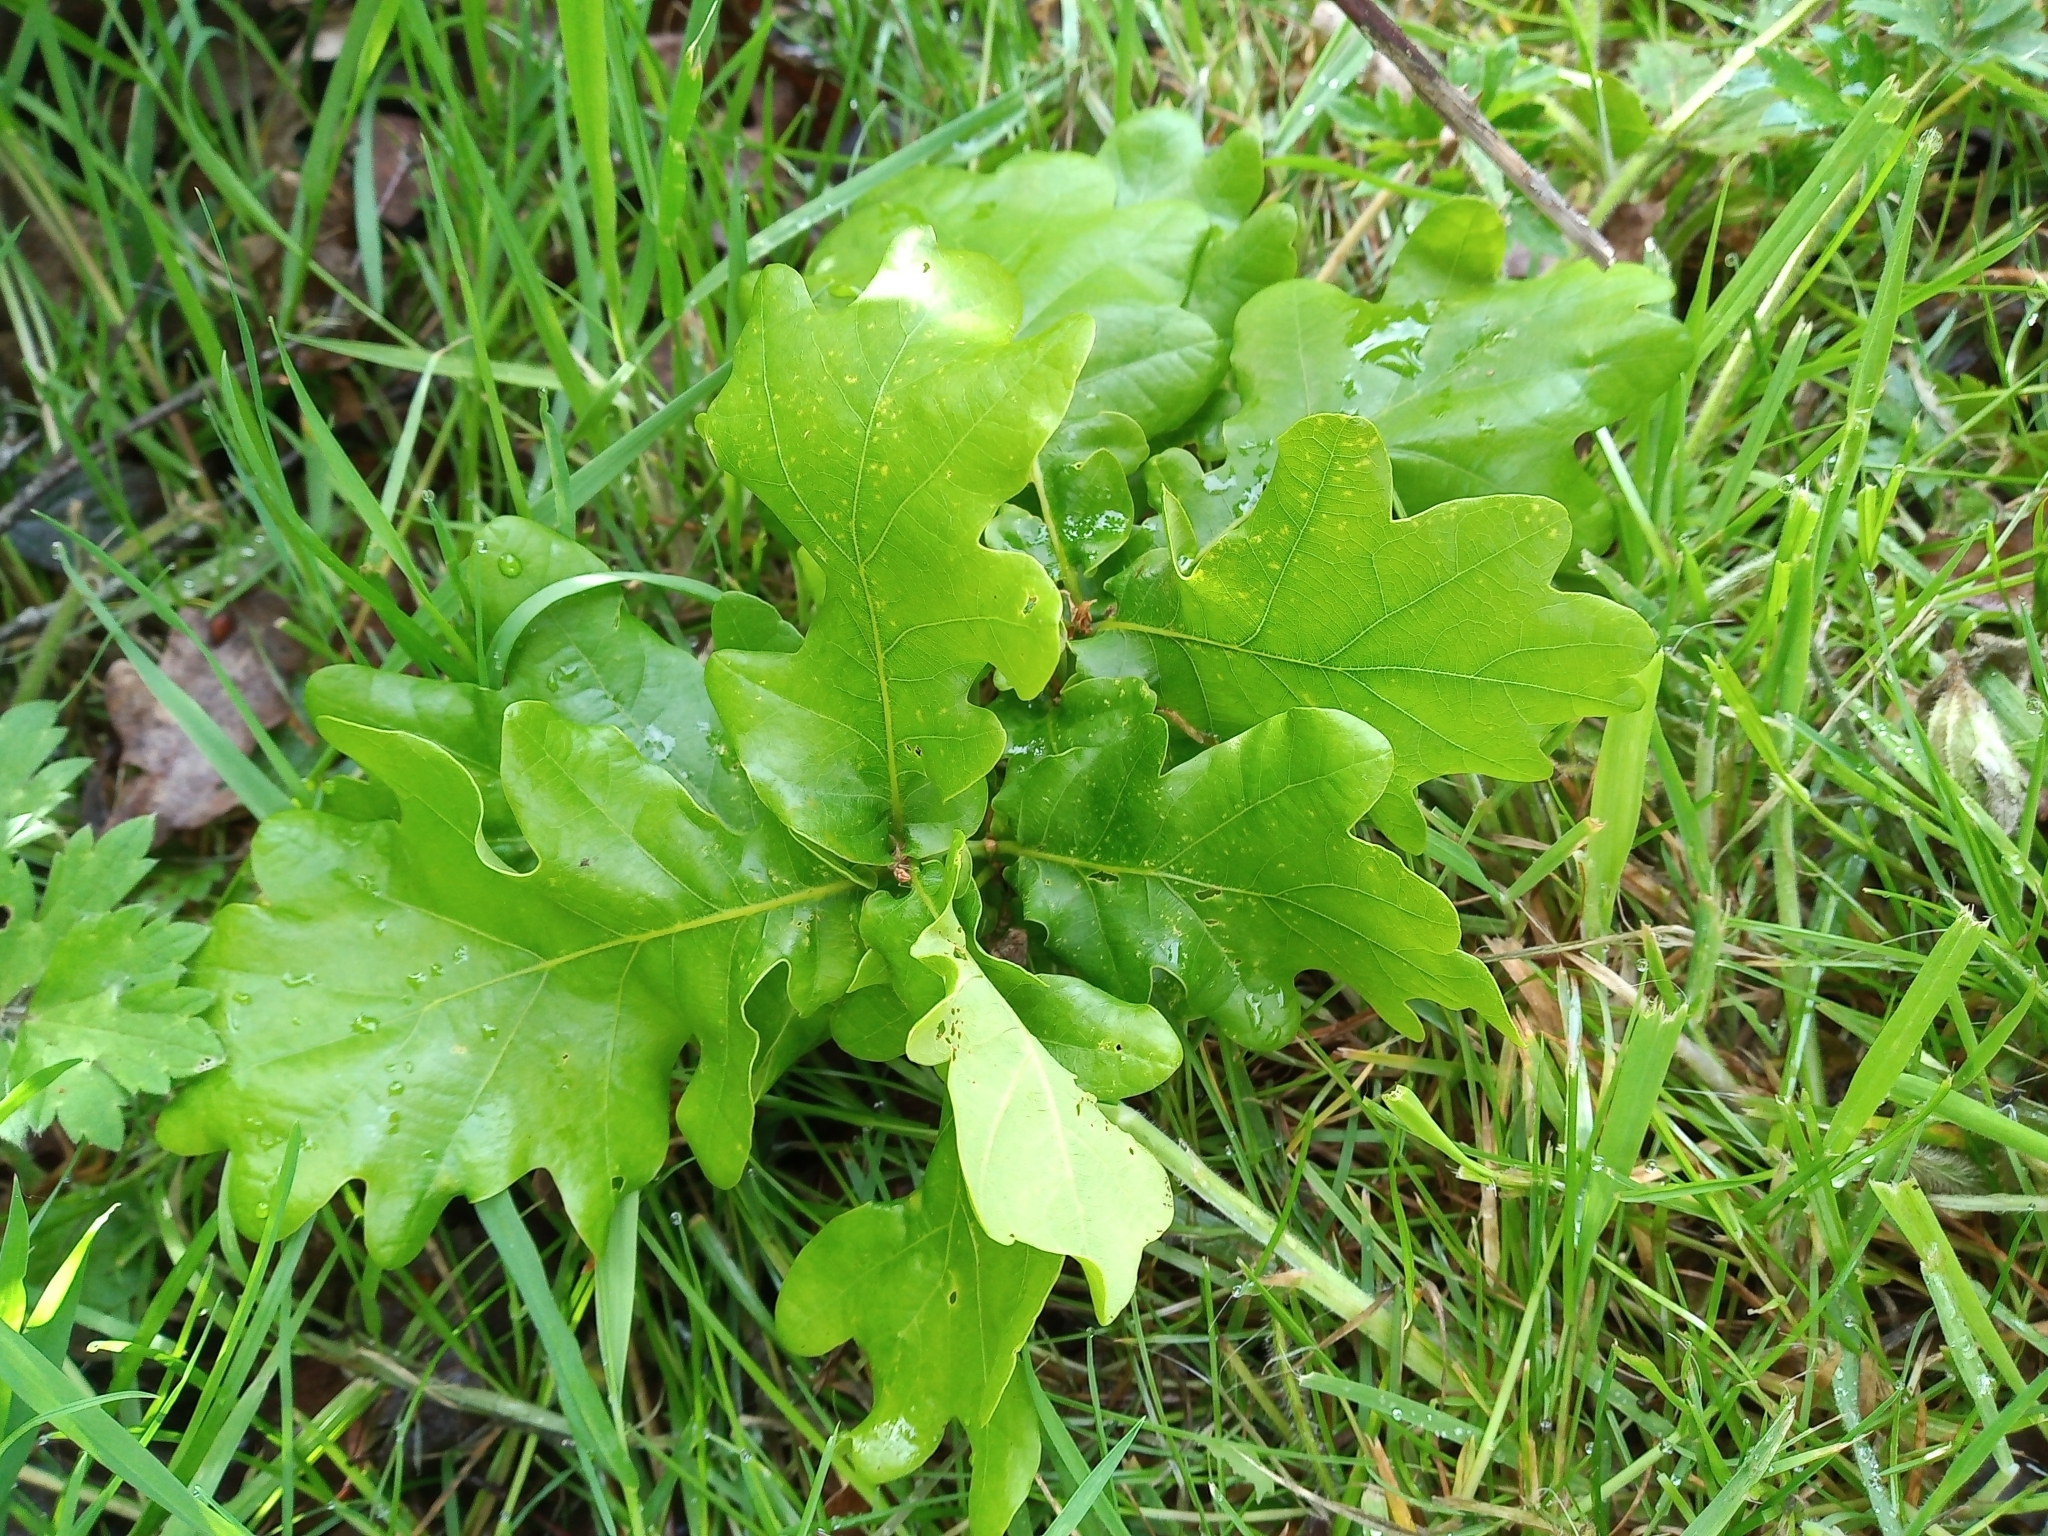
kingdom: Plantae
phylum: Tracheophyta
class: Magnoliopsida
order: Fagales
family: Fagaceae
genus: Quercus
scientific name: Quercus robur
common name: Pedunculate oak
